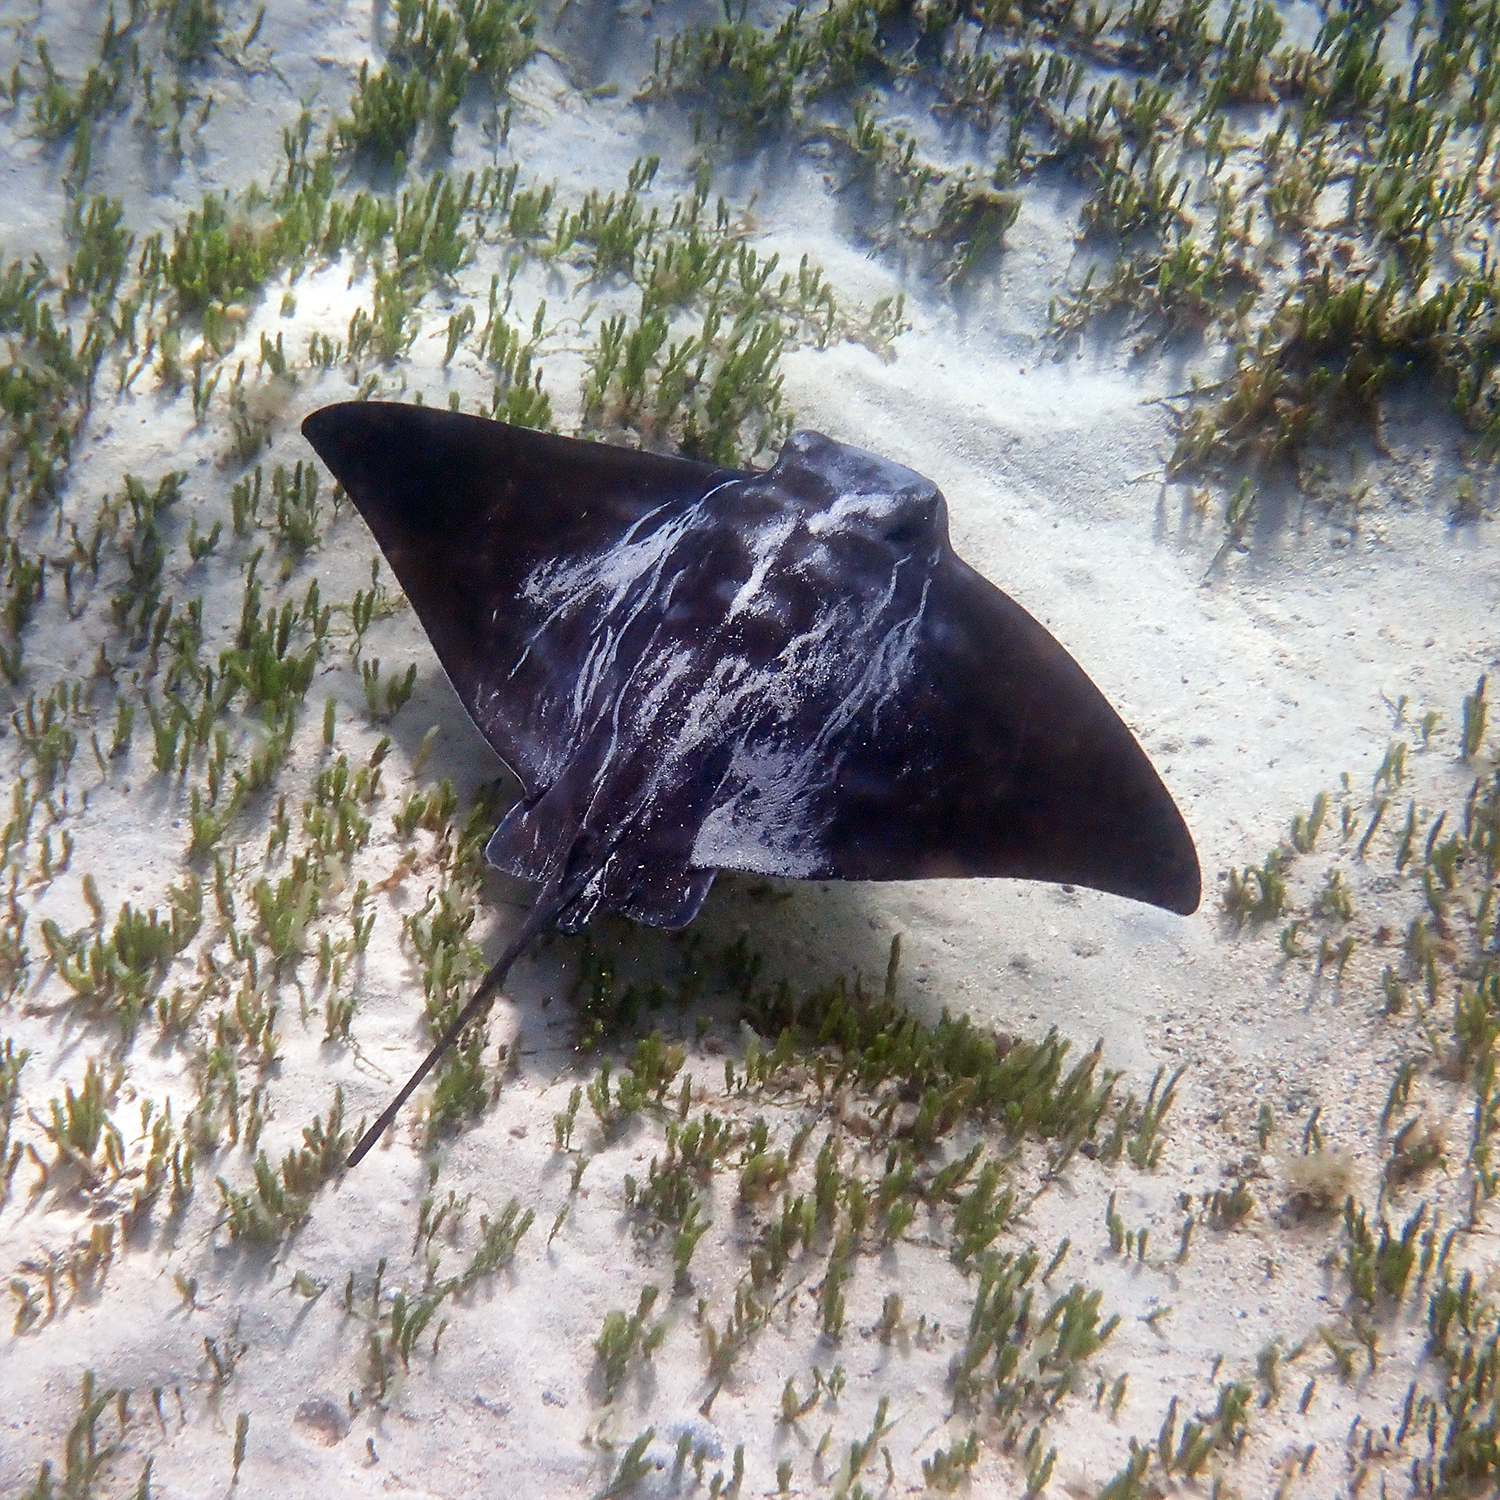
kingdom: Animalia
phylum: Chordata
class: Elasmobranchii
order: Myliobatiformes
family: Myliobatidae
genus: Myliobatis
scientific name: Myliobatis tenuicaudatus
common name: Eagle ray
